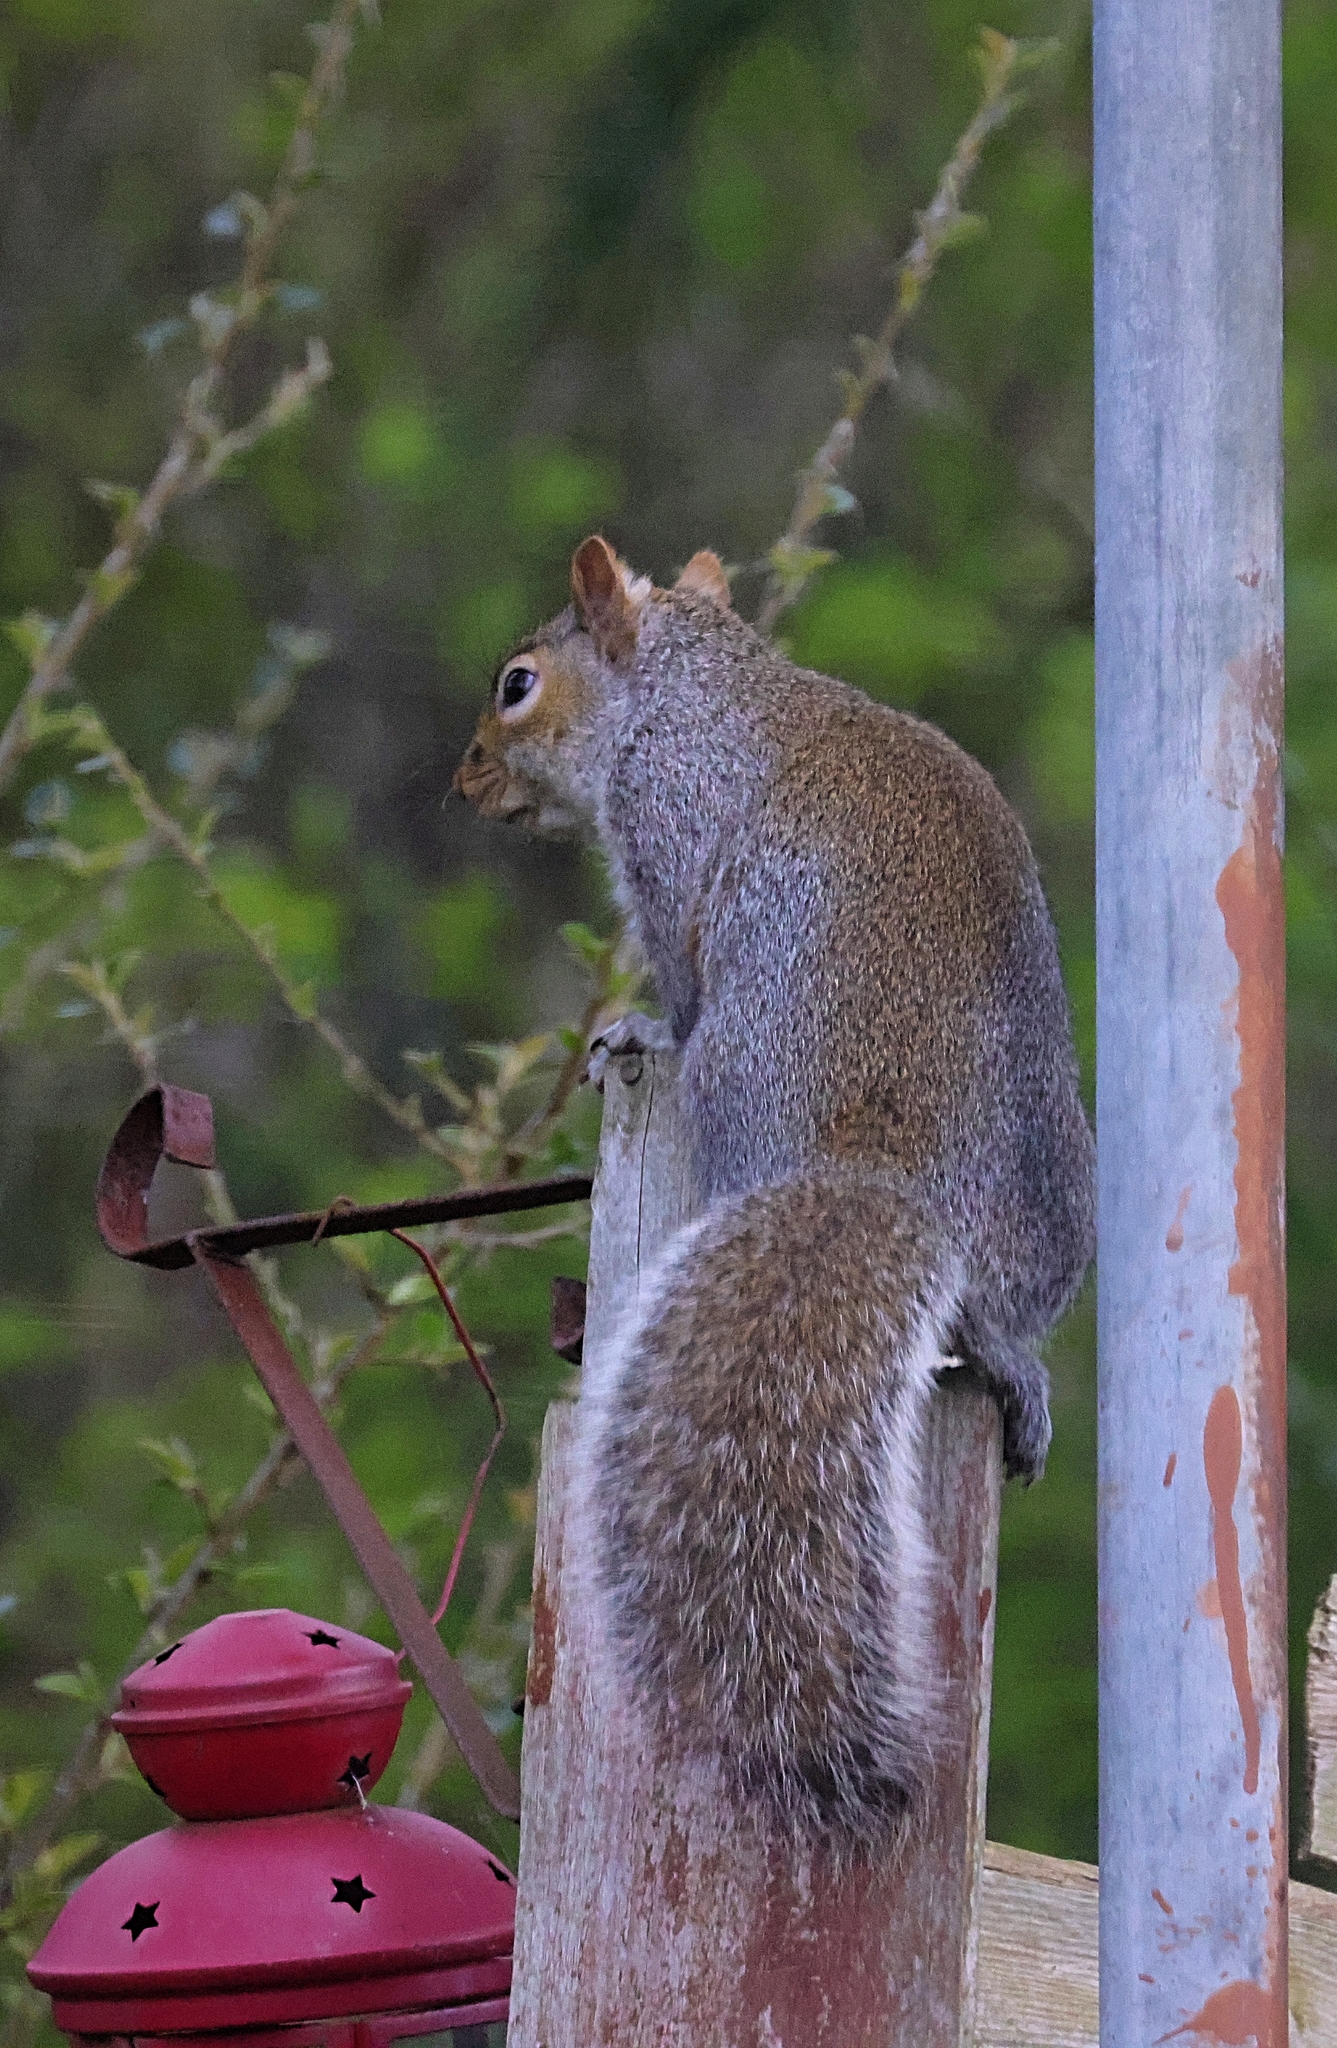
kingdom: Animalia
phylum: Chordata
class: Mammalia
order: Rodentia
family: Sciuridae
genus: Sciurus
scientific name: Sciurus carolinensis
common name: Eastern gray squirrel
